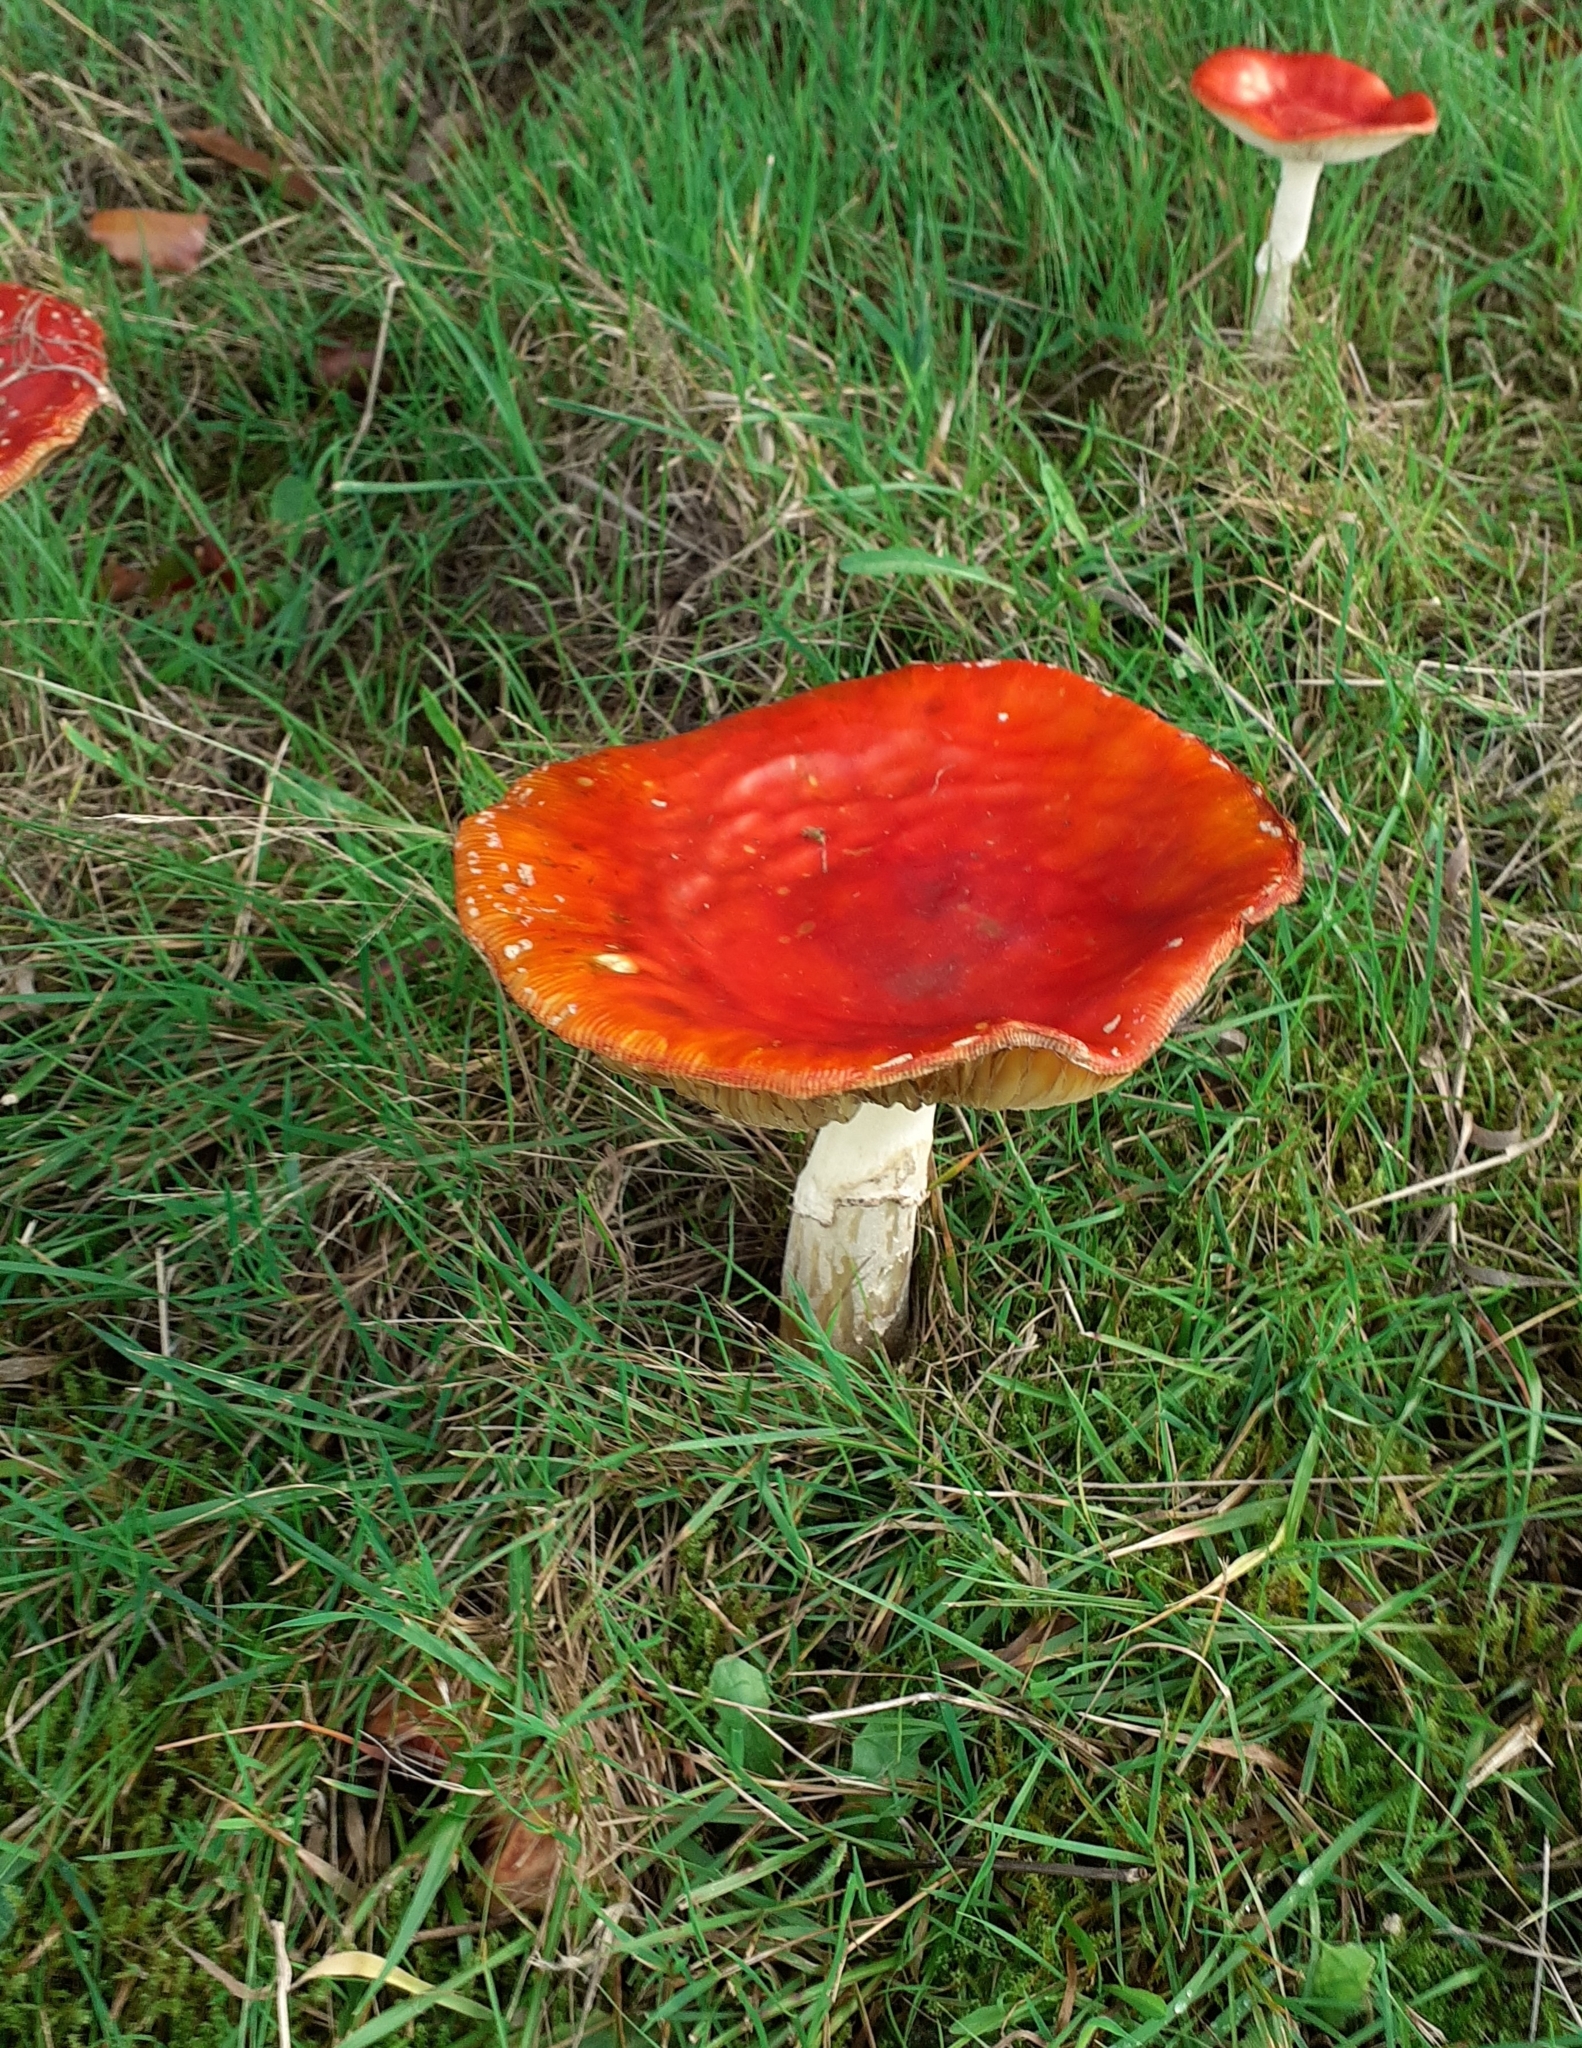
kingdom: Fungi
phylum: Basidiomycota
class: Agaricomycetes
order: Agaricales
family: Amanitaceae
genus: Amanita
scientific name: Amanita muscaria
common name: Fly agaric
